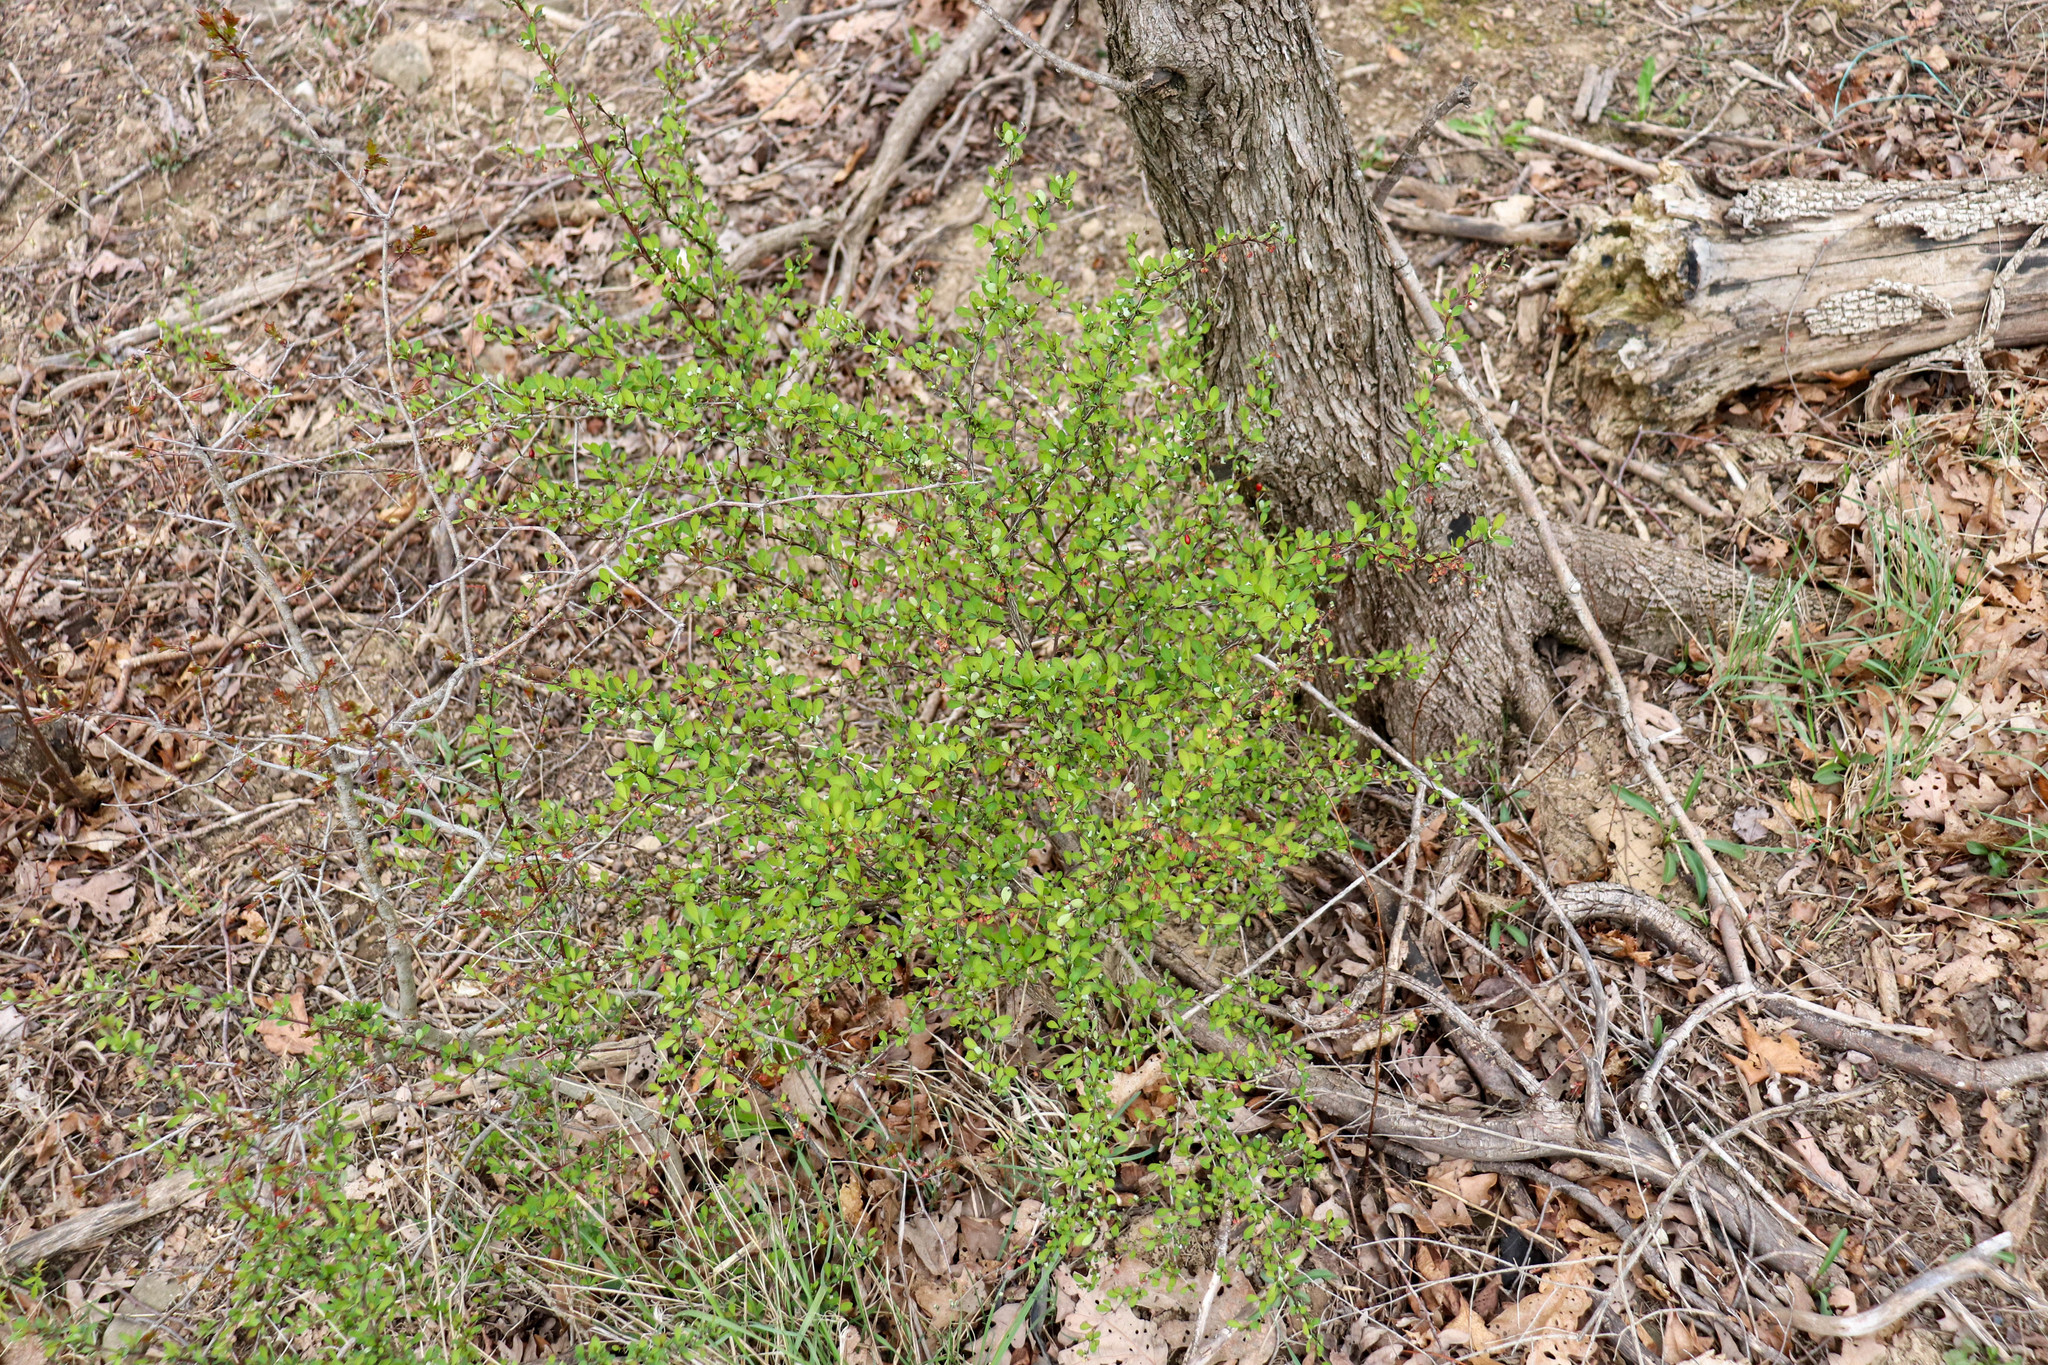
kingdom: Plantae
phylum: Tracheophyta
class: Magnoliopsida
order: Ranunculales
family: Berberidaceae
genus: Berberis
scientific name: Berberis thunbergii
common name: Japanese barberry
